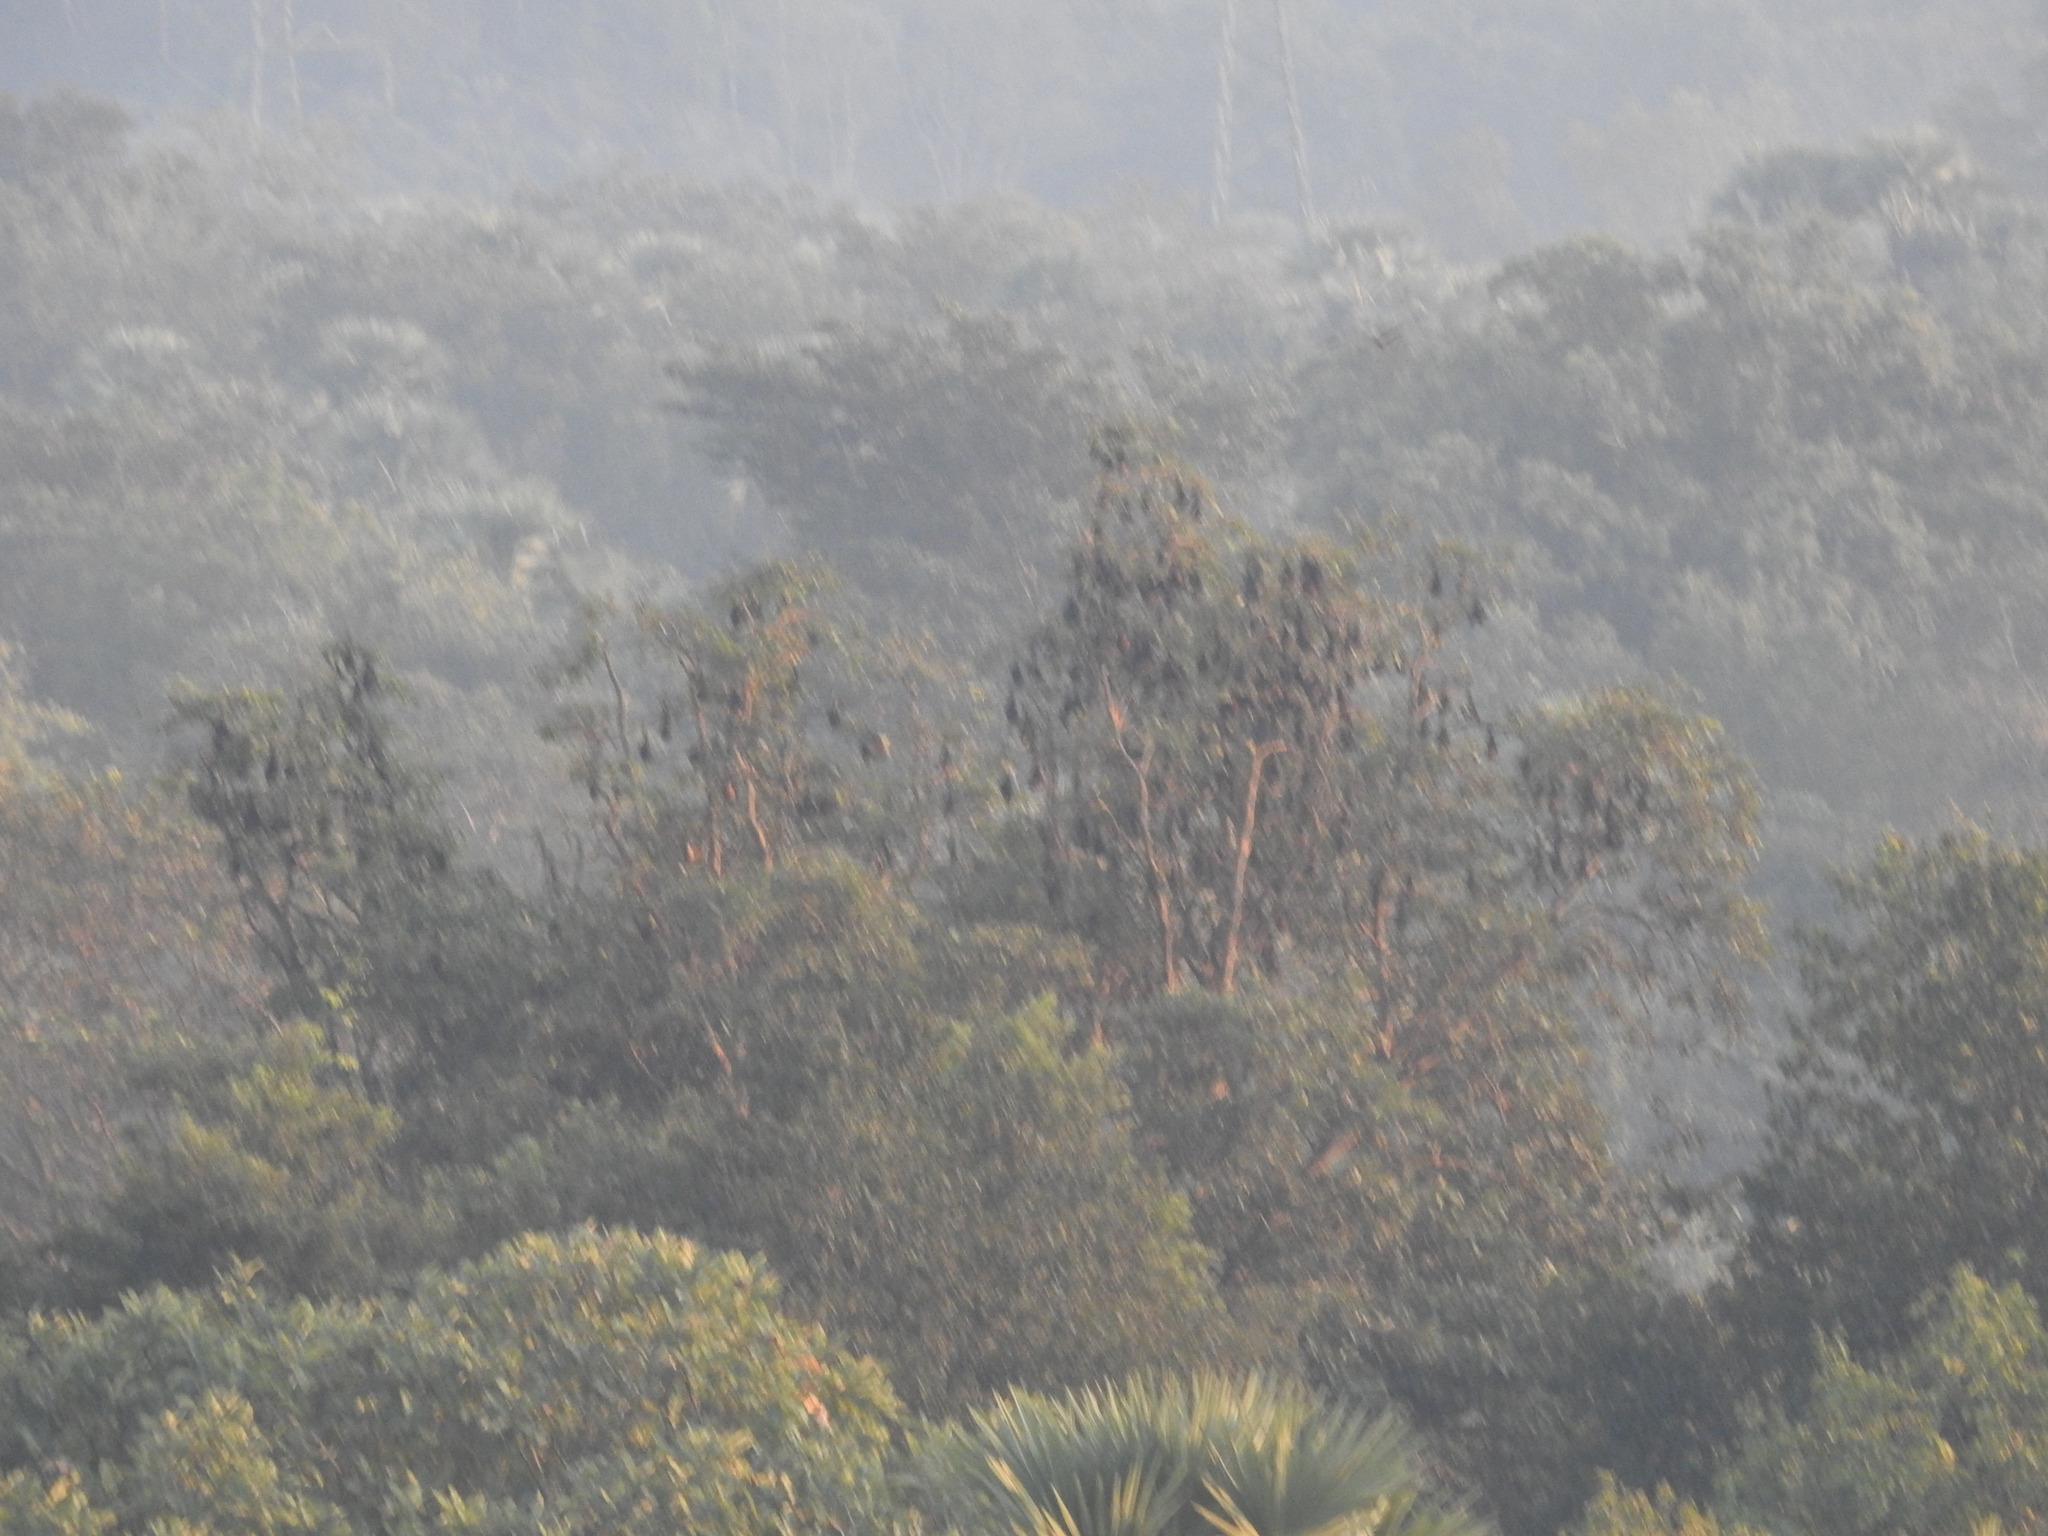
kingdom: Animalia
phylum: Chordata
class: Mammalia
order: Chiroptera
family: Pteropodidae
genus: Pteropus
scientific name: Pteropus vampyrus
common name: Large flying fox
